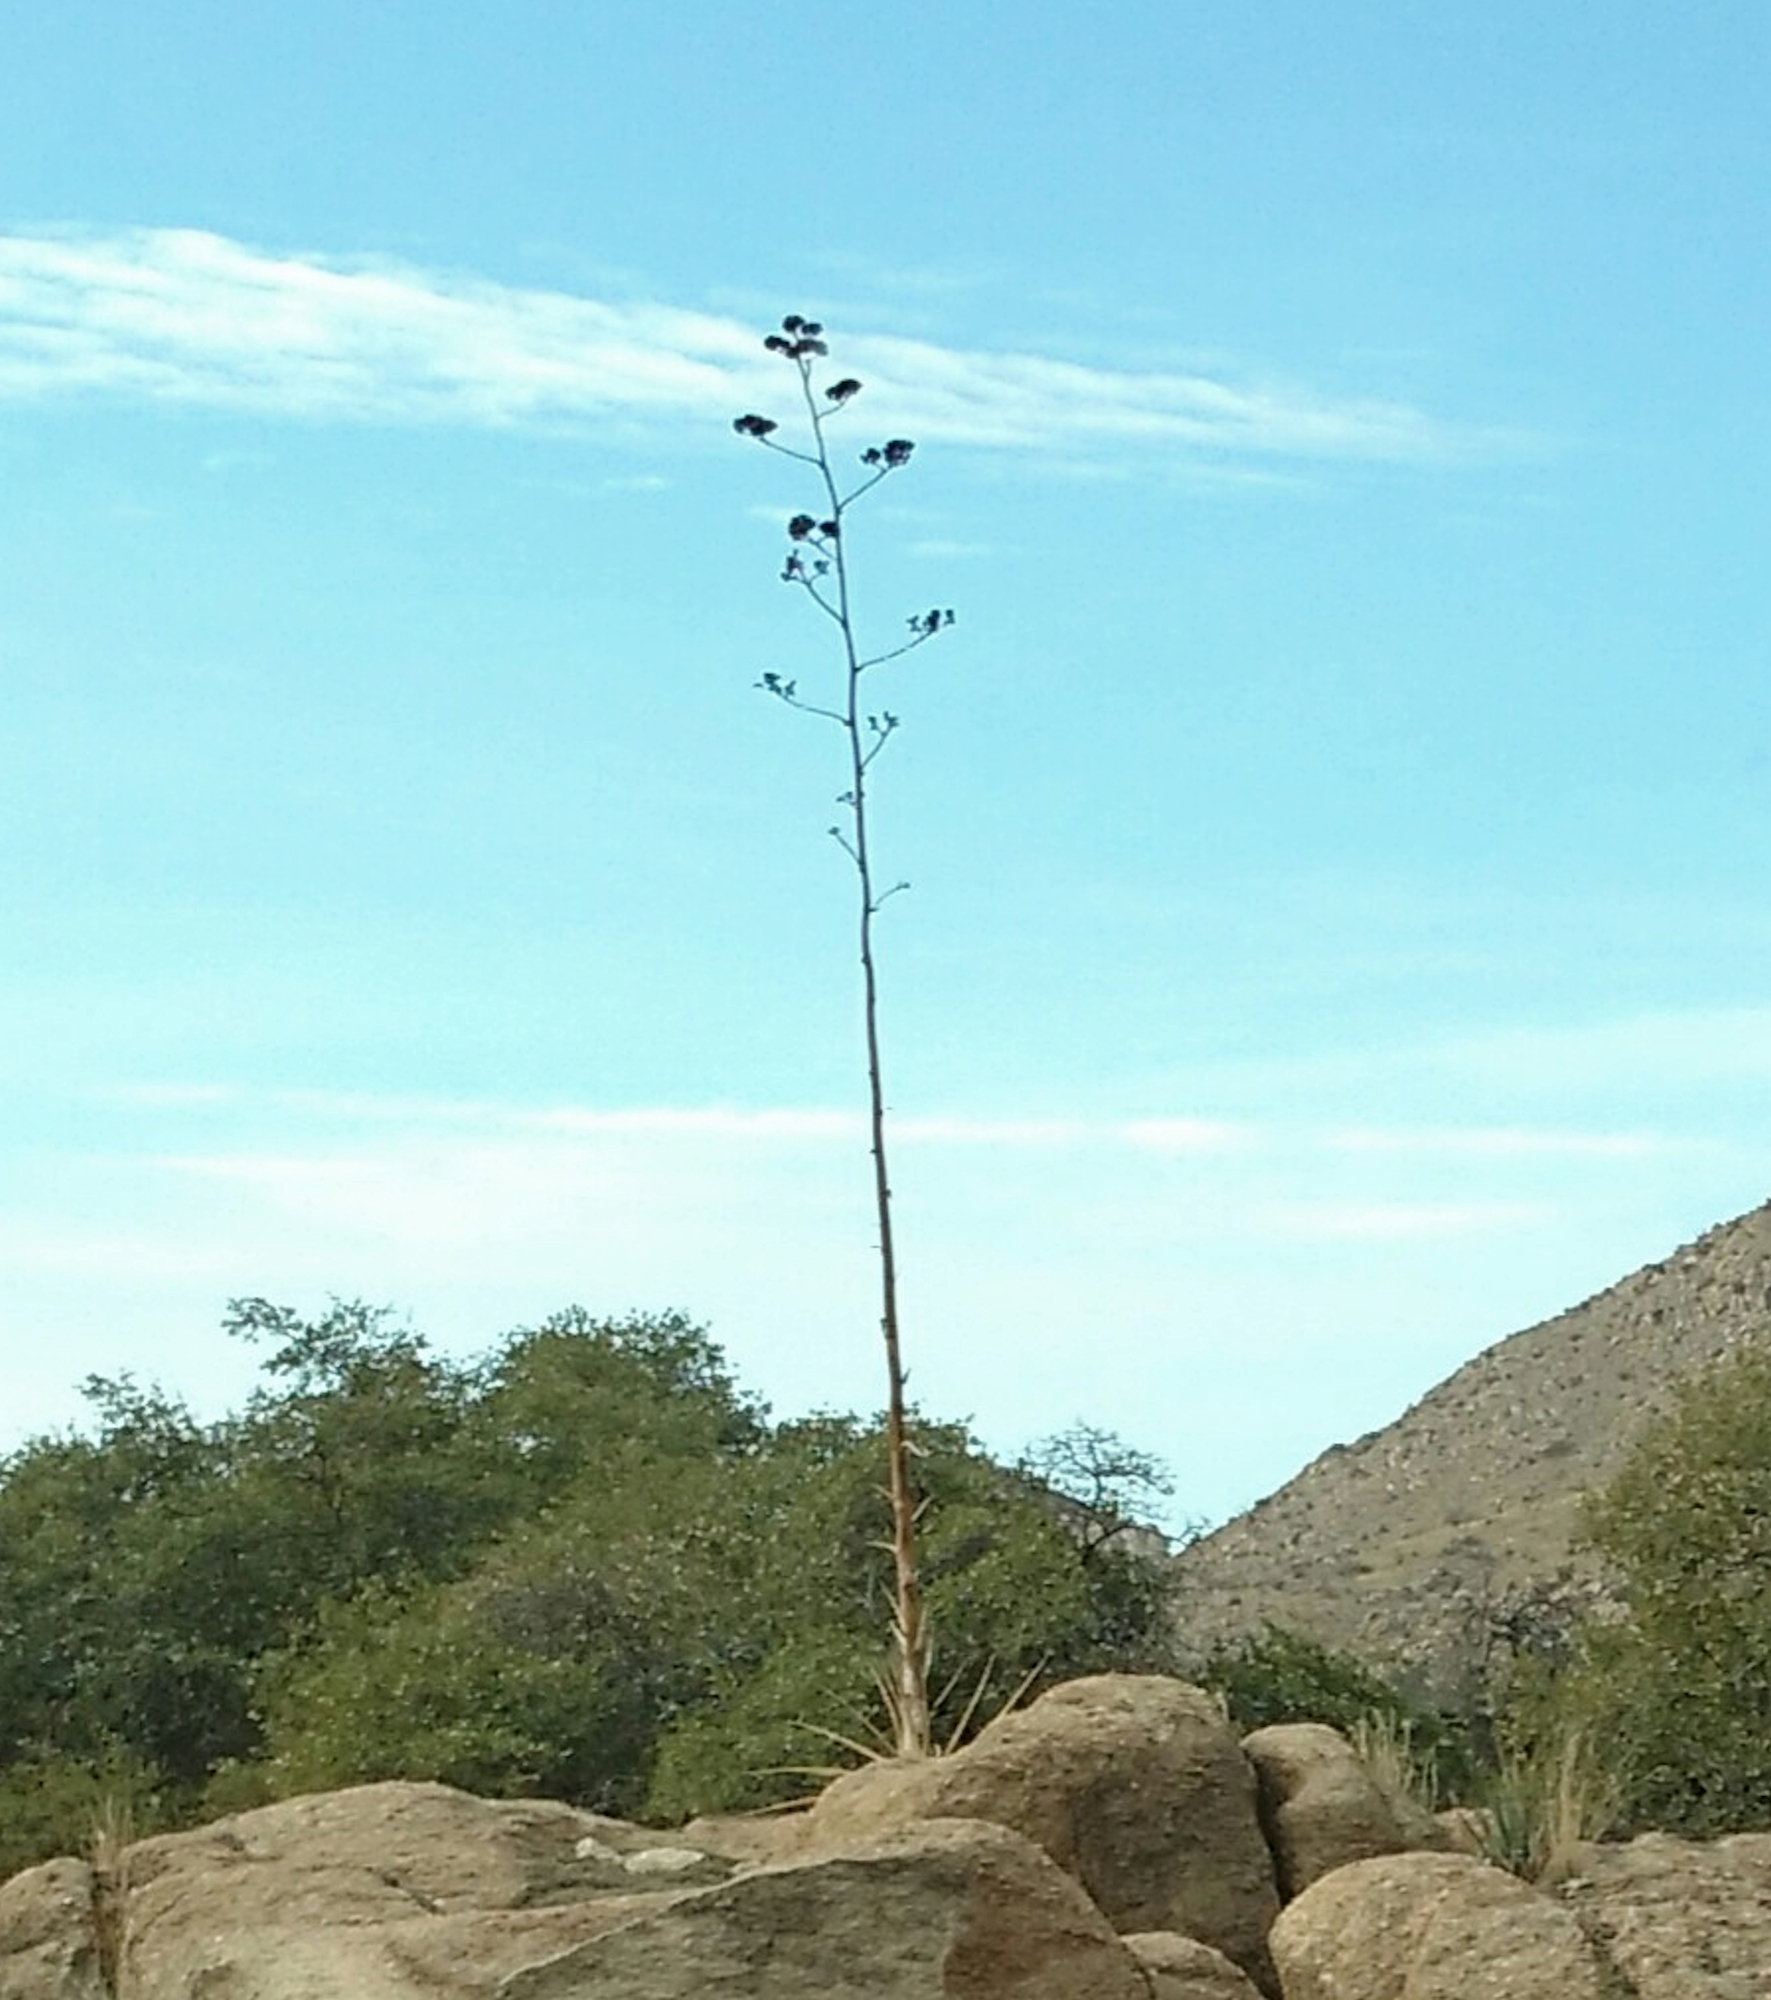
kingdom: Plantae
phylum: Tracheophyta
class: Liliopsida
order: Asparagales
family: Asparagaceae
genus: Agave
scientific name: Agave palmeri
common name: Palmer agave
